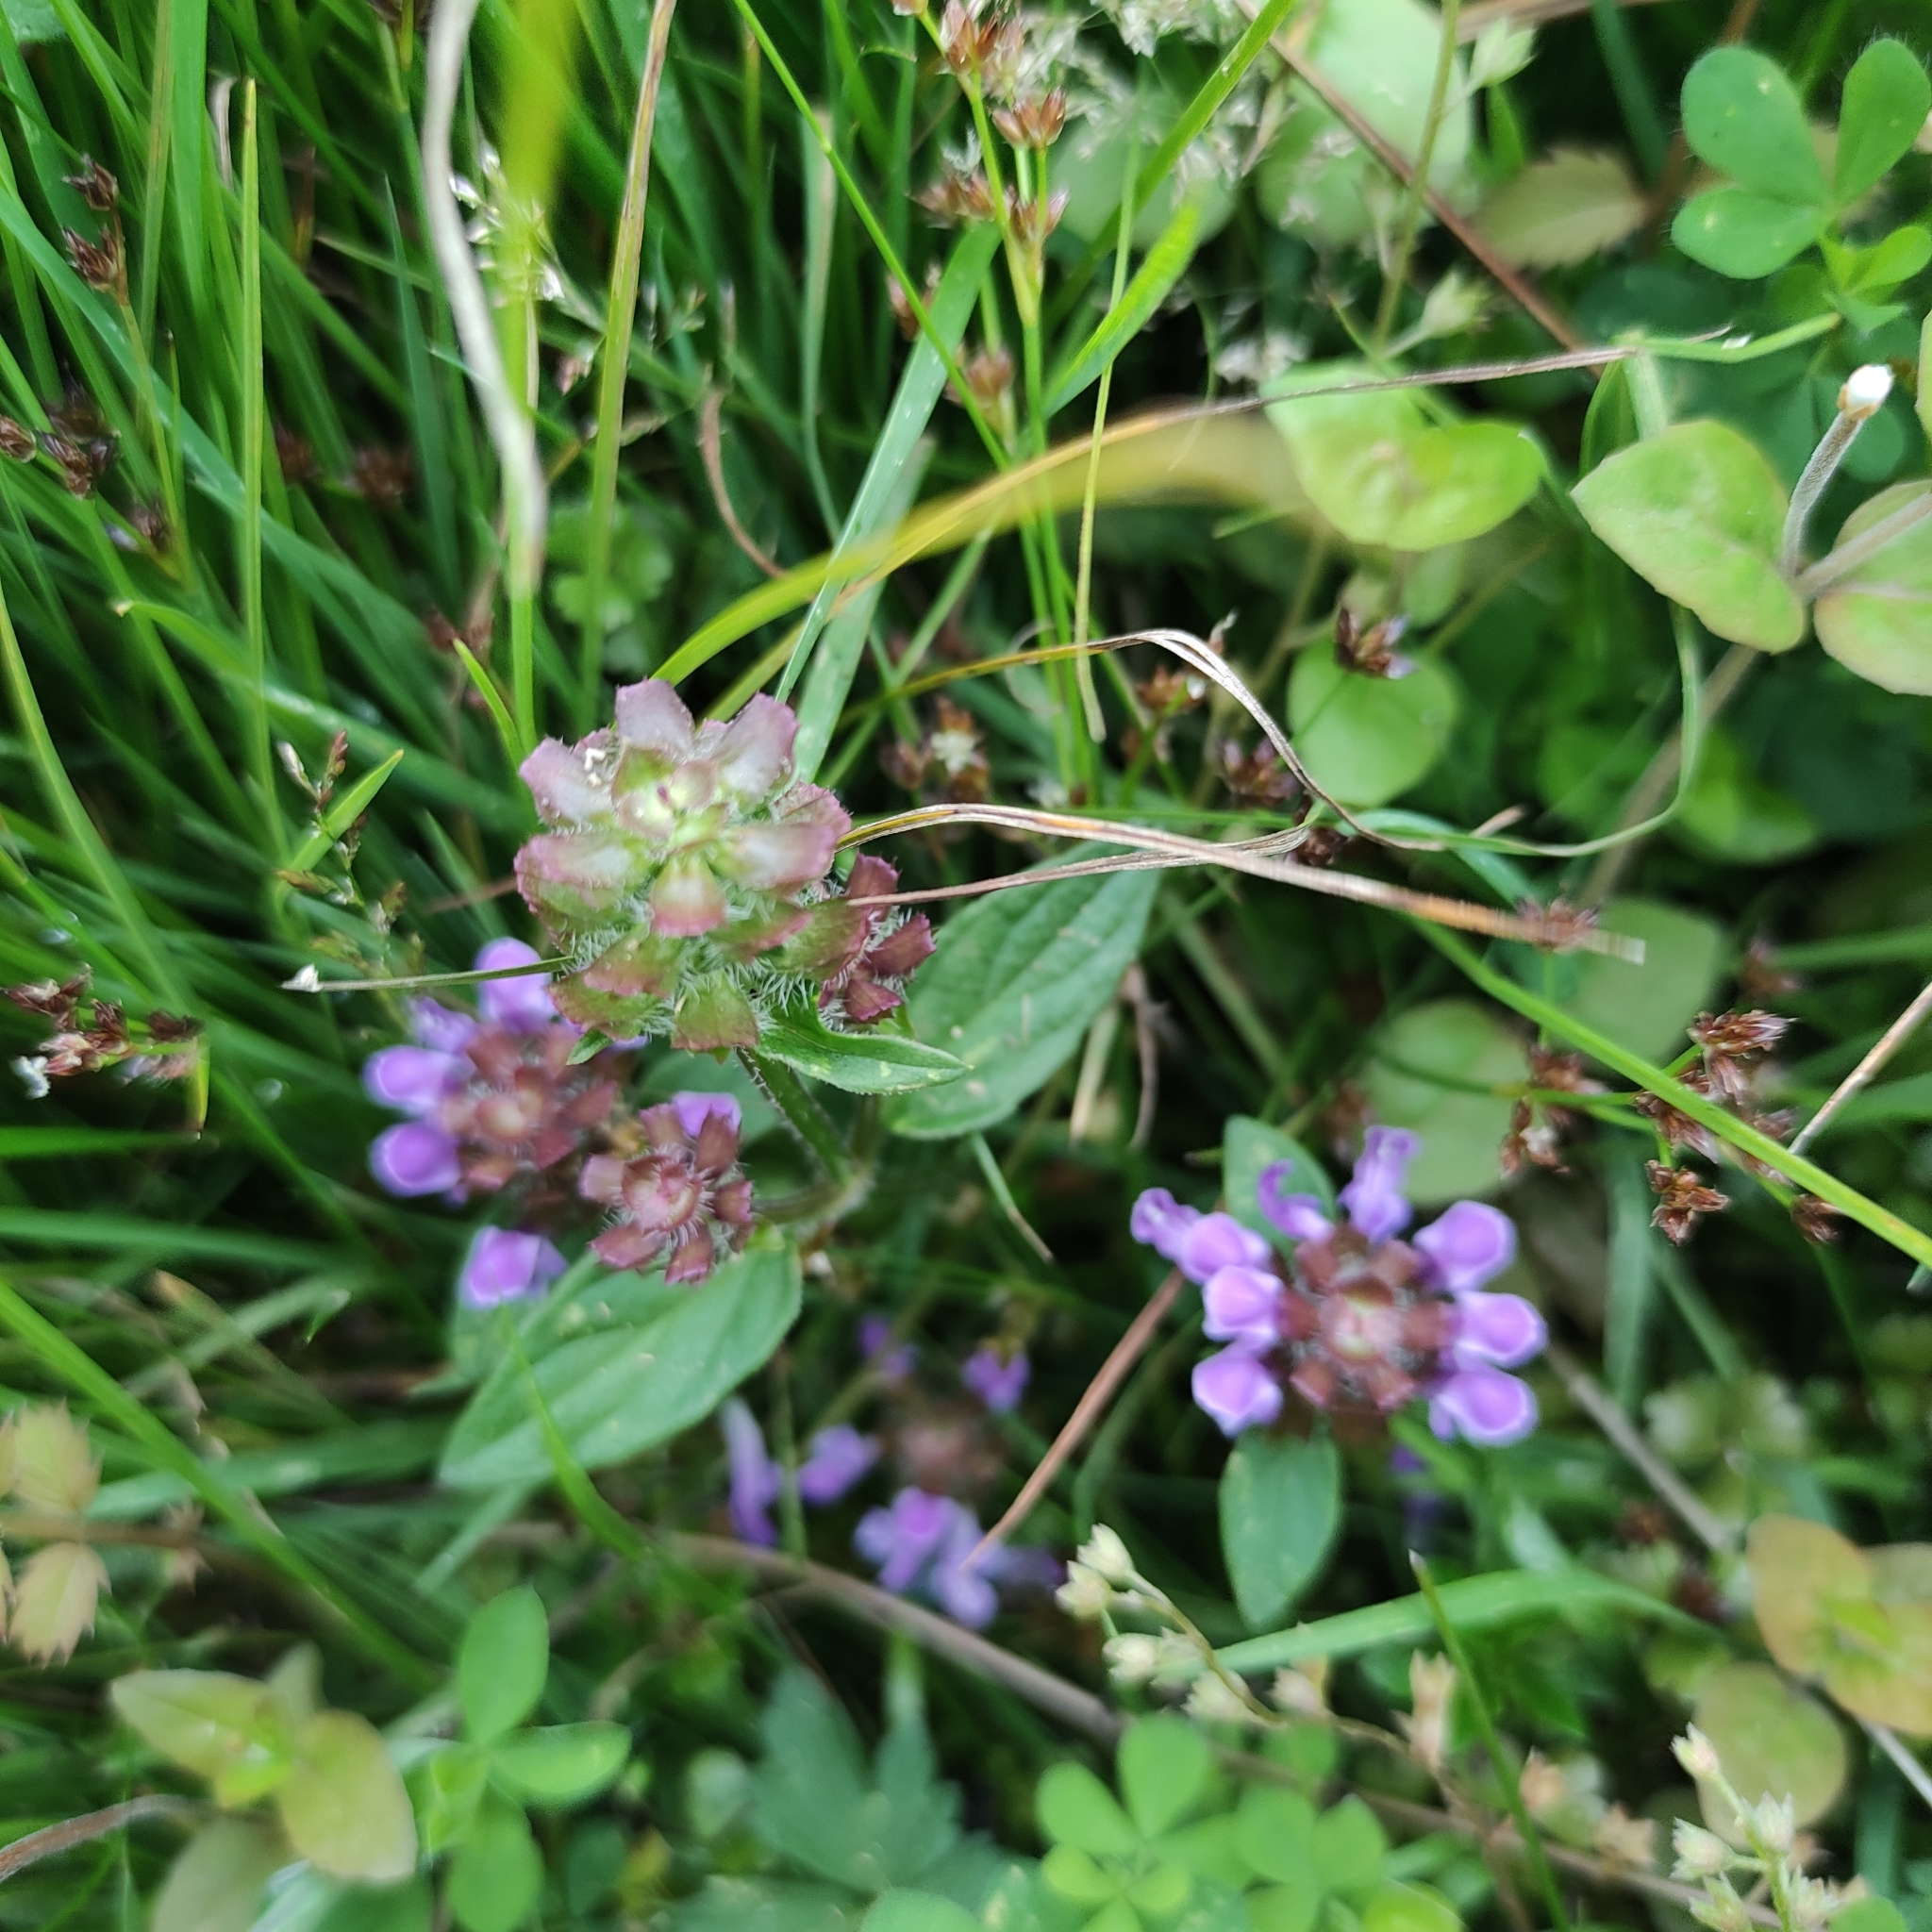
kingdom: Plantae
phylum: Tracheophyta
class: Magnoliopsida
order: Lamiales
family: Lamiaceae
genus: Prunella
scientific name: Prunella vulgaris
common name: Heal-all
